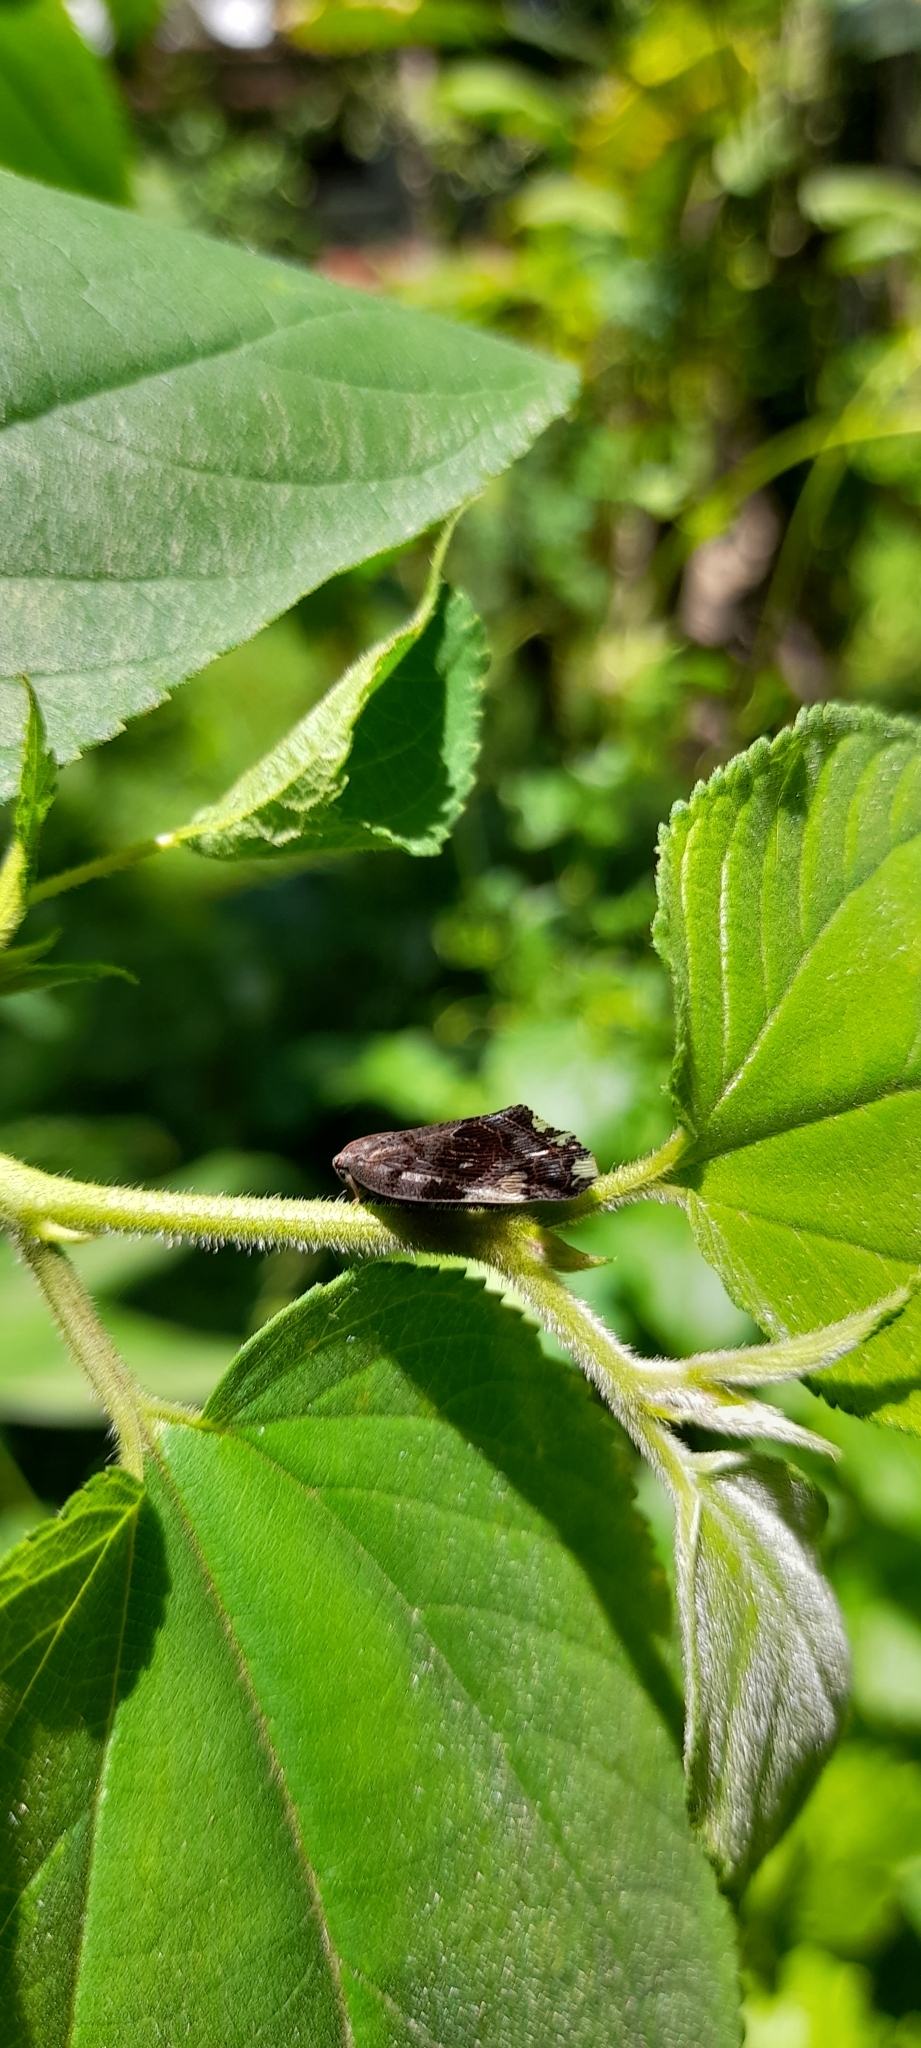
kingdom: Animalia
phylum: Arthropoda
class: Insecta
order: Hemiptera
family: Ricaniidae
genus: Ricania
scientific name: Ricania speculum
